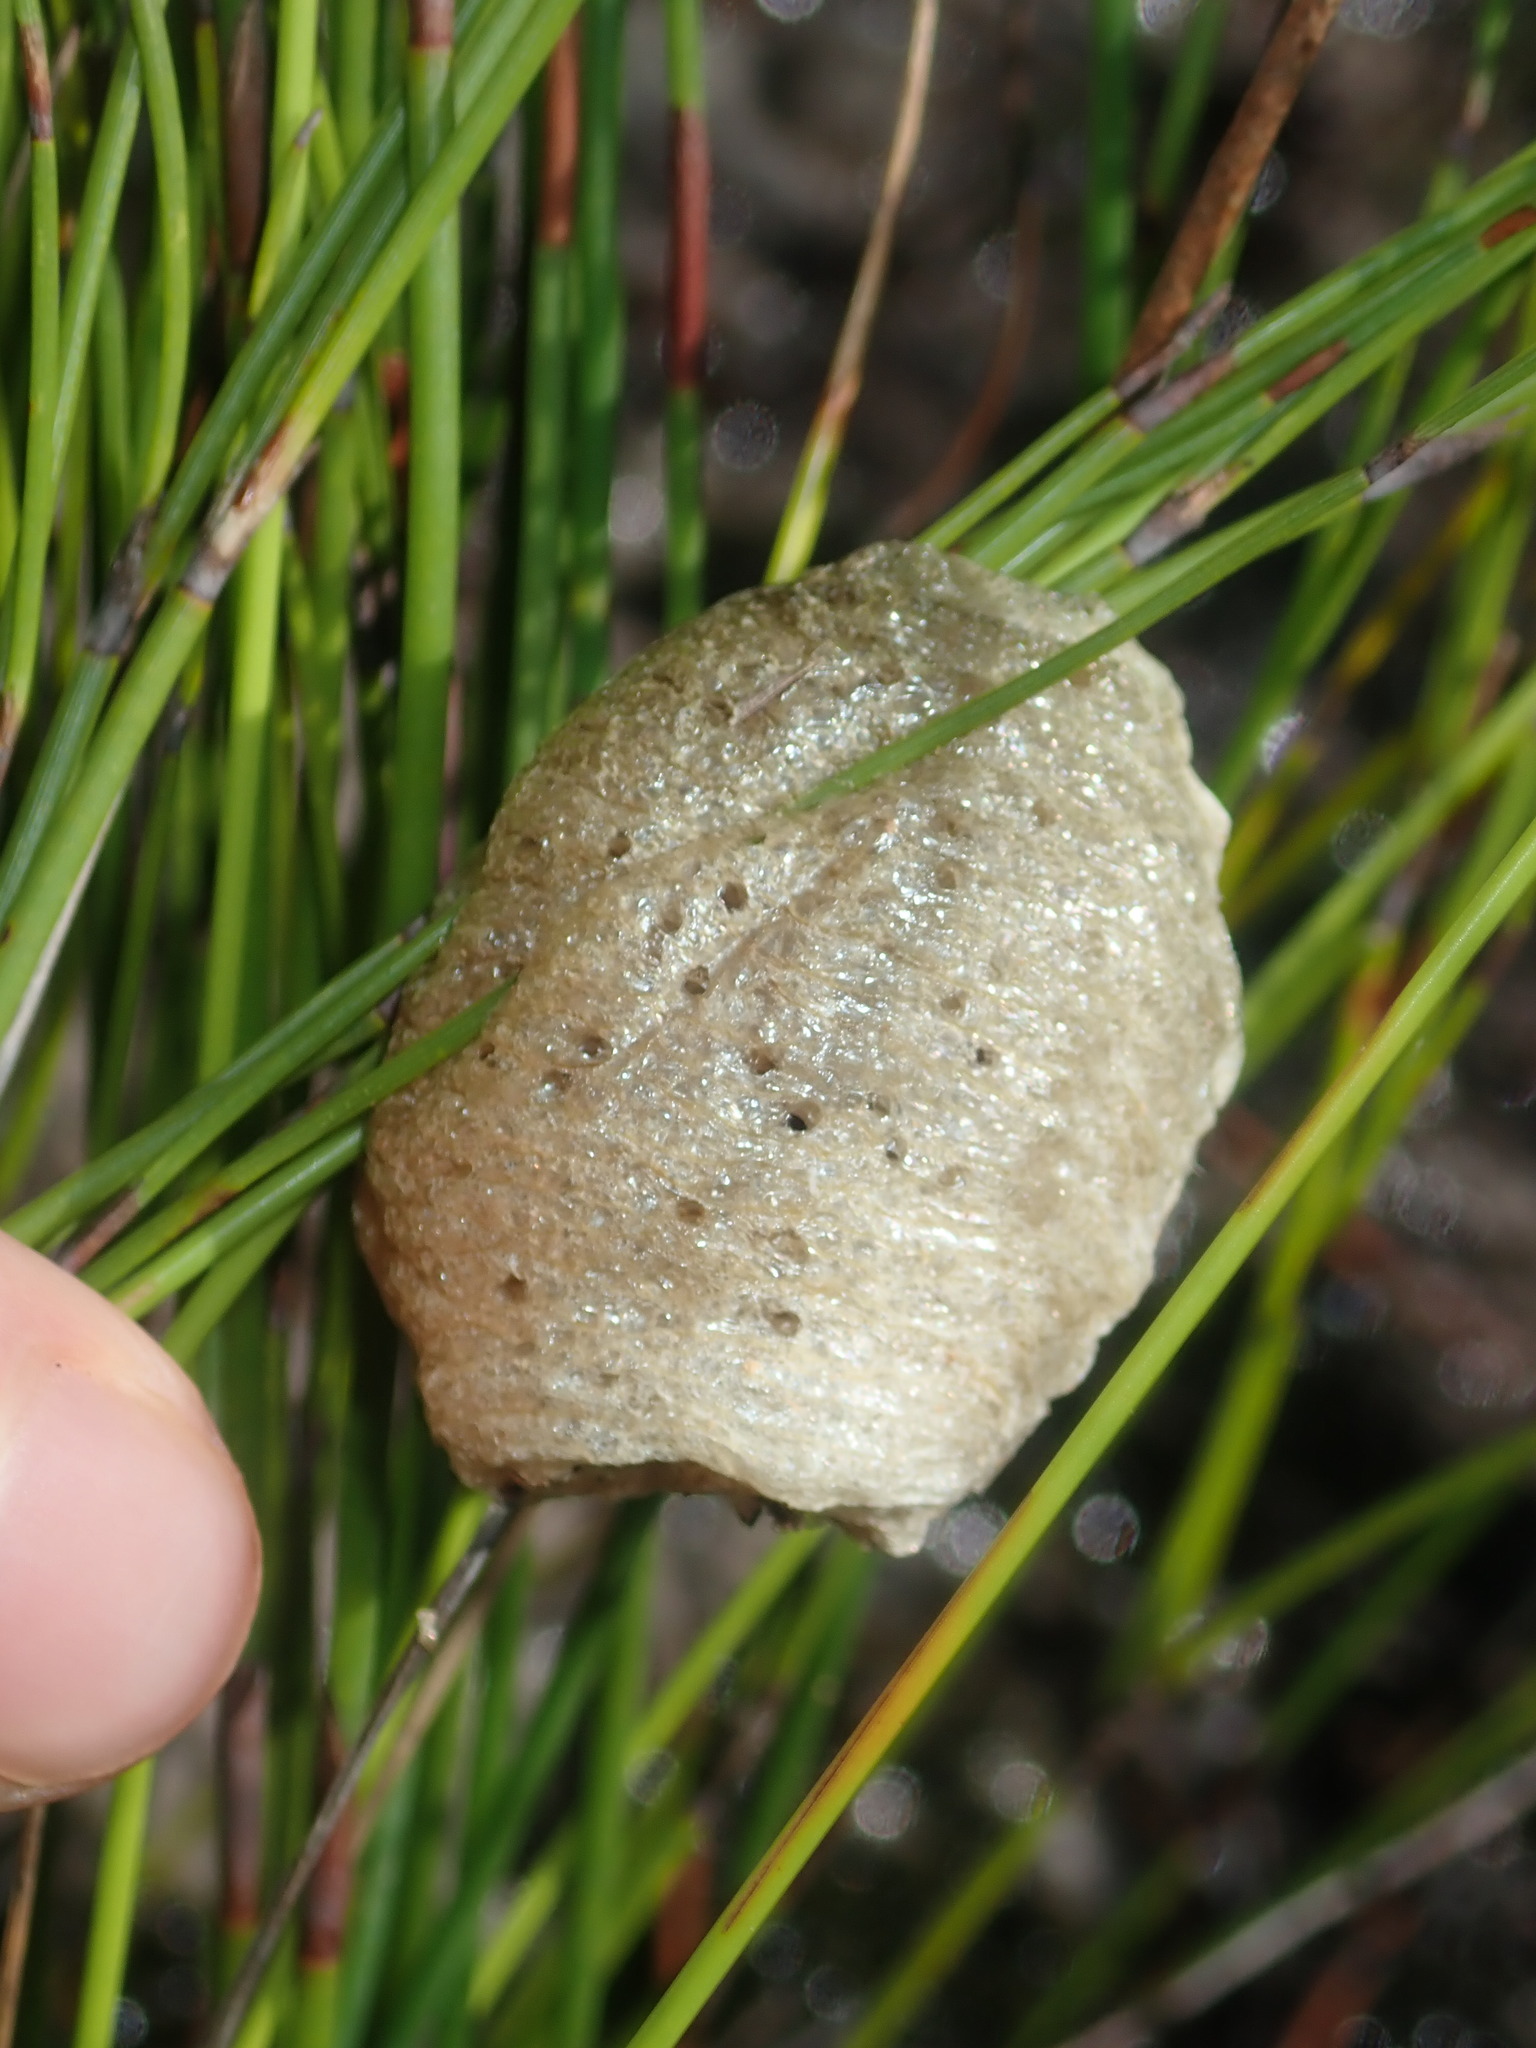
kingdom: Animalia
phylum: Arthropoda
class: Insecta
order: Mantodea
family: Mantidae
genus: Archimantis
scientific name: Archimantis latistyla
